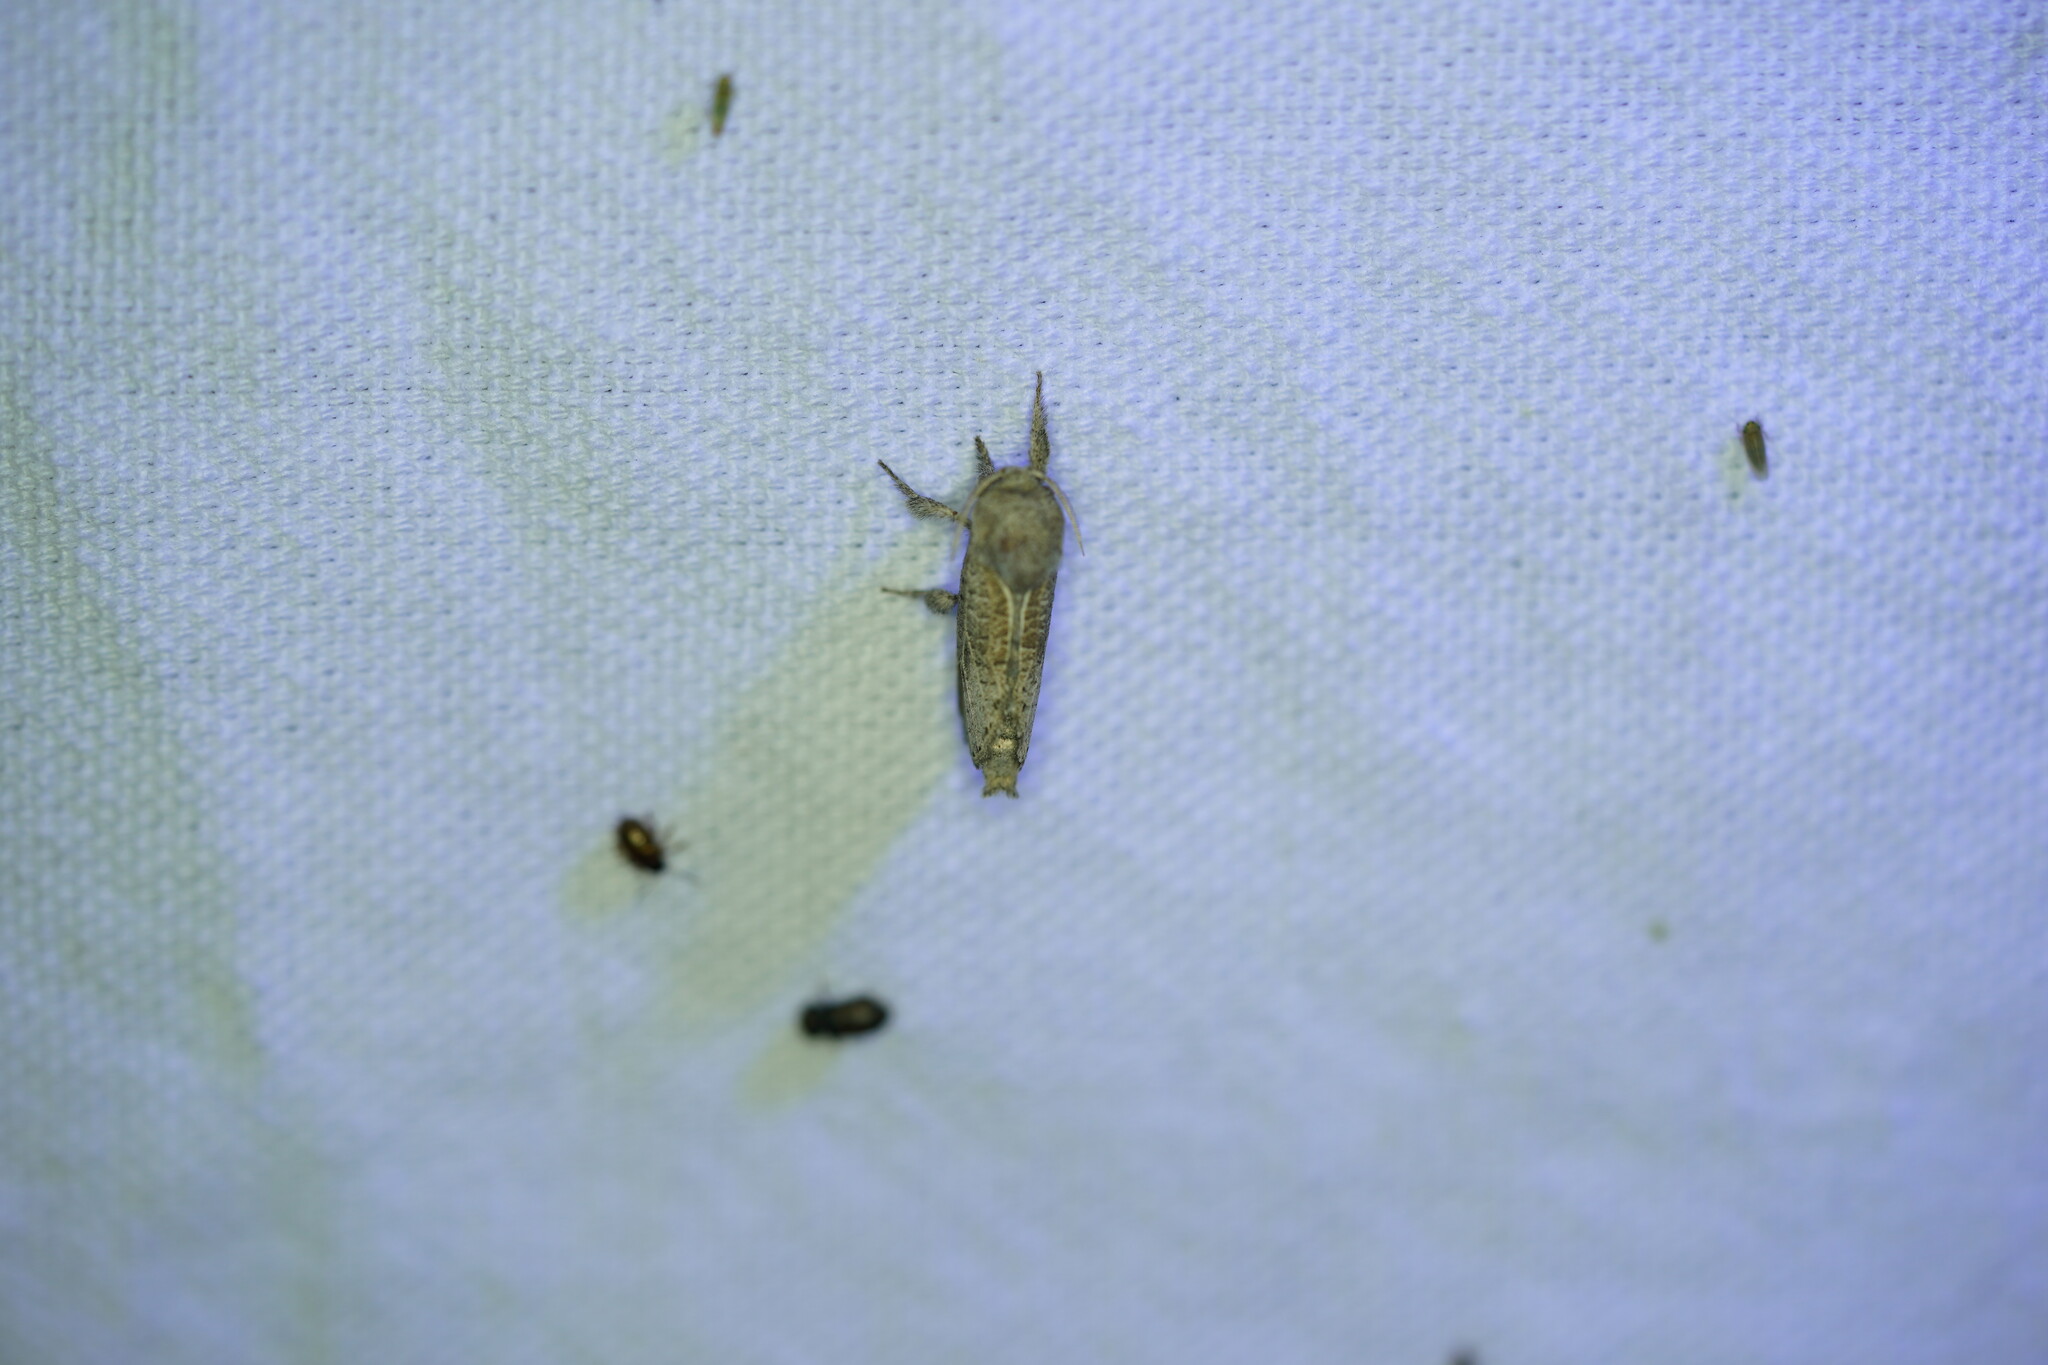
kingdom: Animalia
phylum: Arthropoda
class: Insecta
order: Lepidoptera
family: Cossidae
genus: Givira
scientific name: Givira anna
